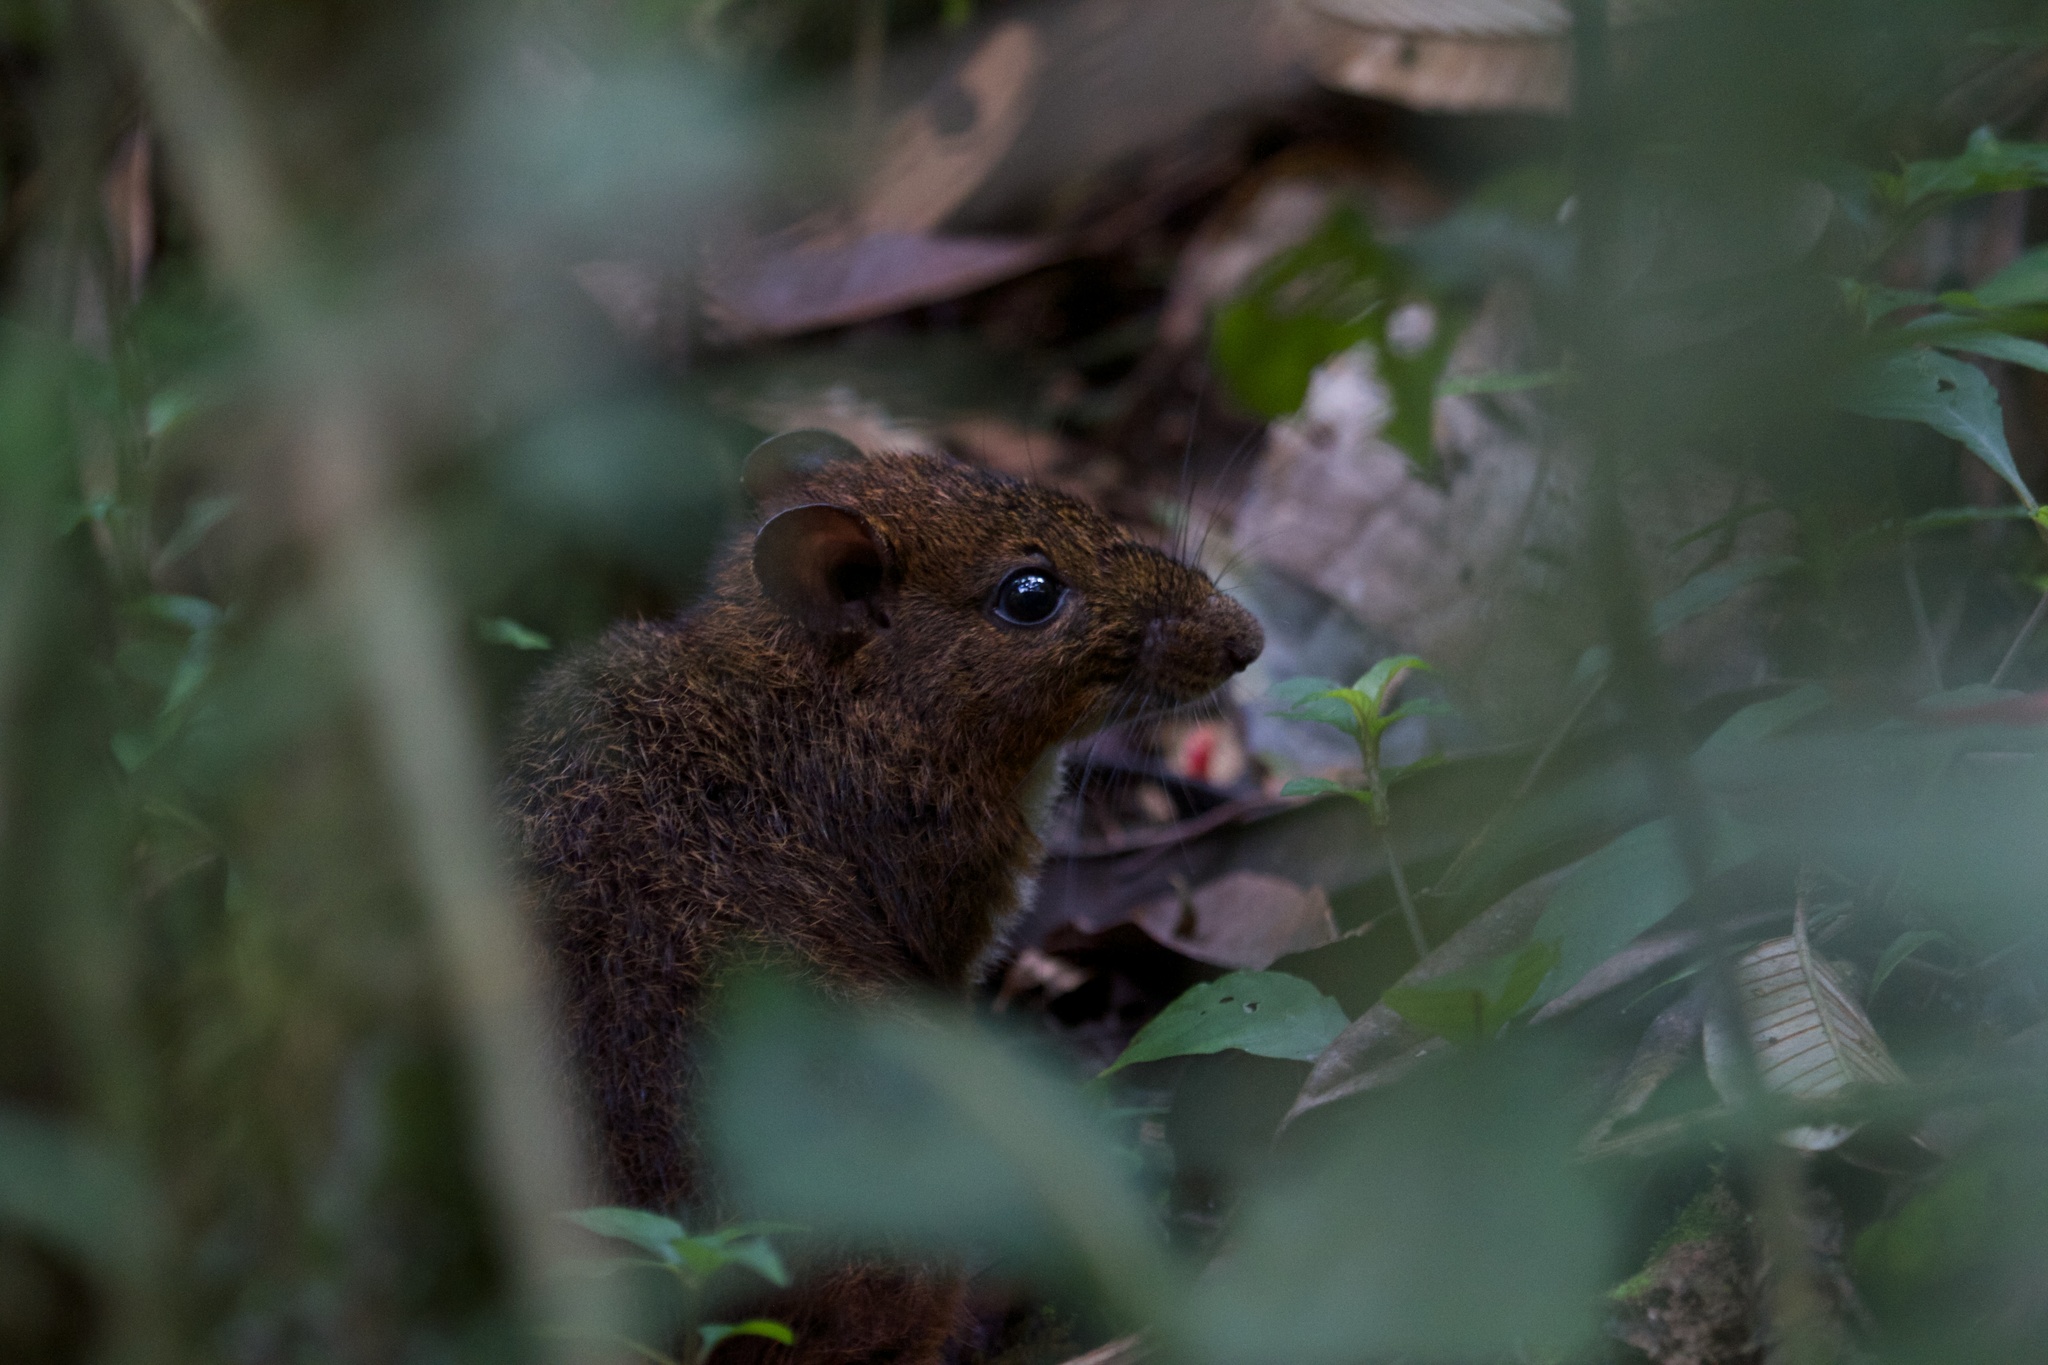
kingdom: Animalia
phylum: Chordata
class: Mammalia
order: Rodentia
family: Nesomyidae
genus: Nesomys
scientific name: Nesomys rufus
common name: Rufous nesomys
